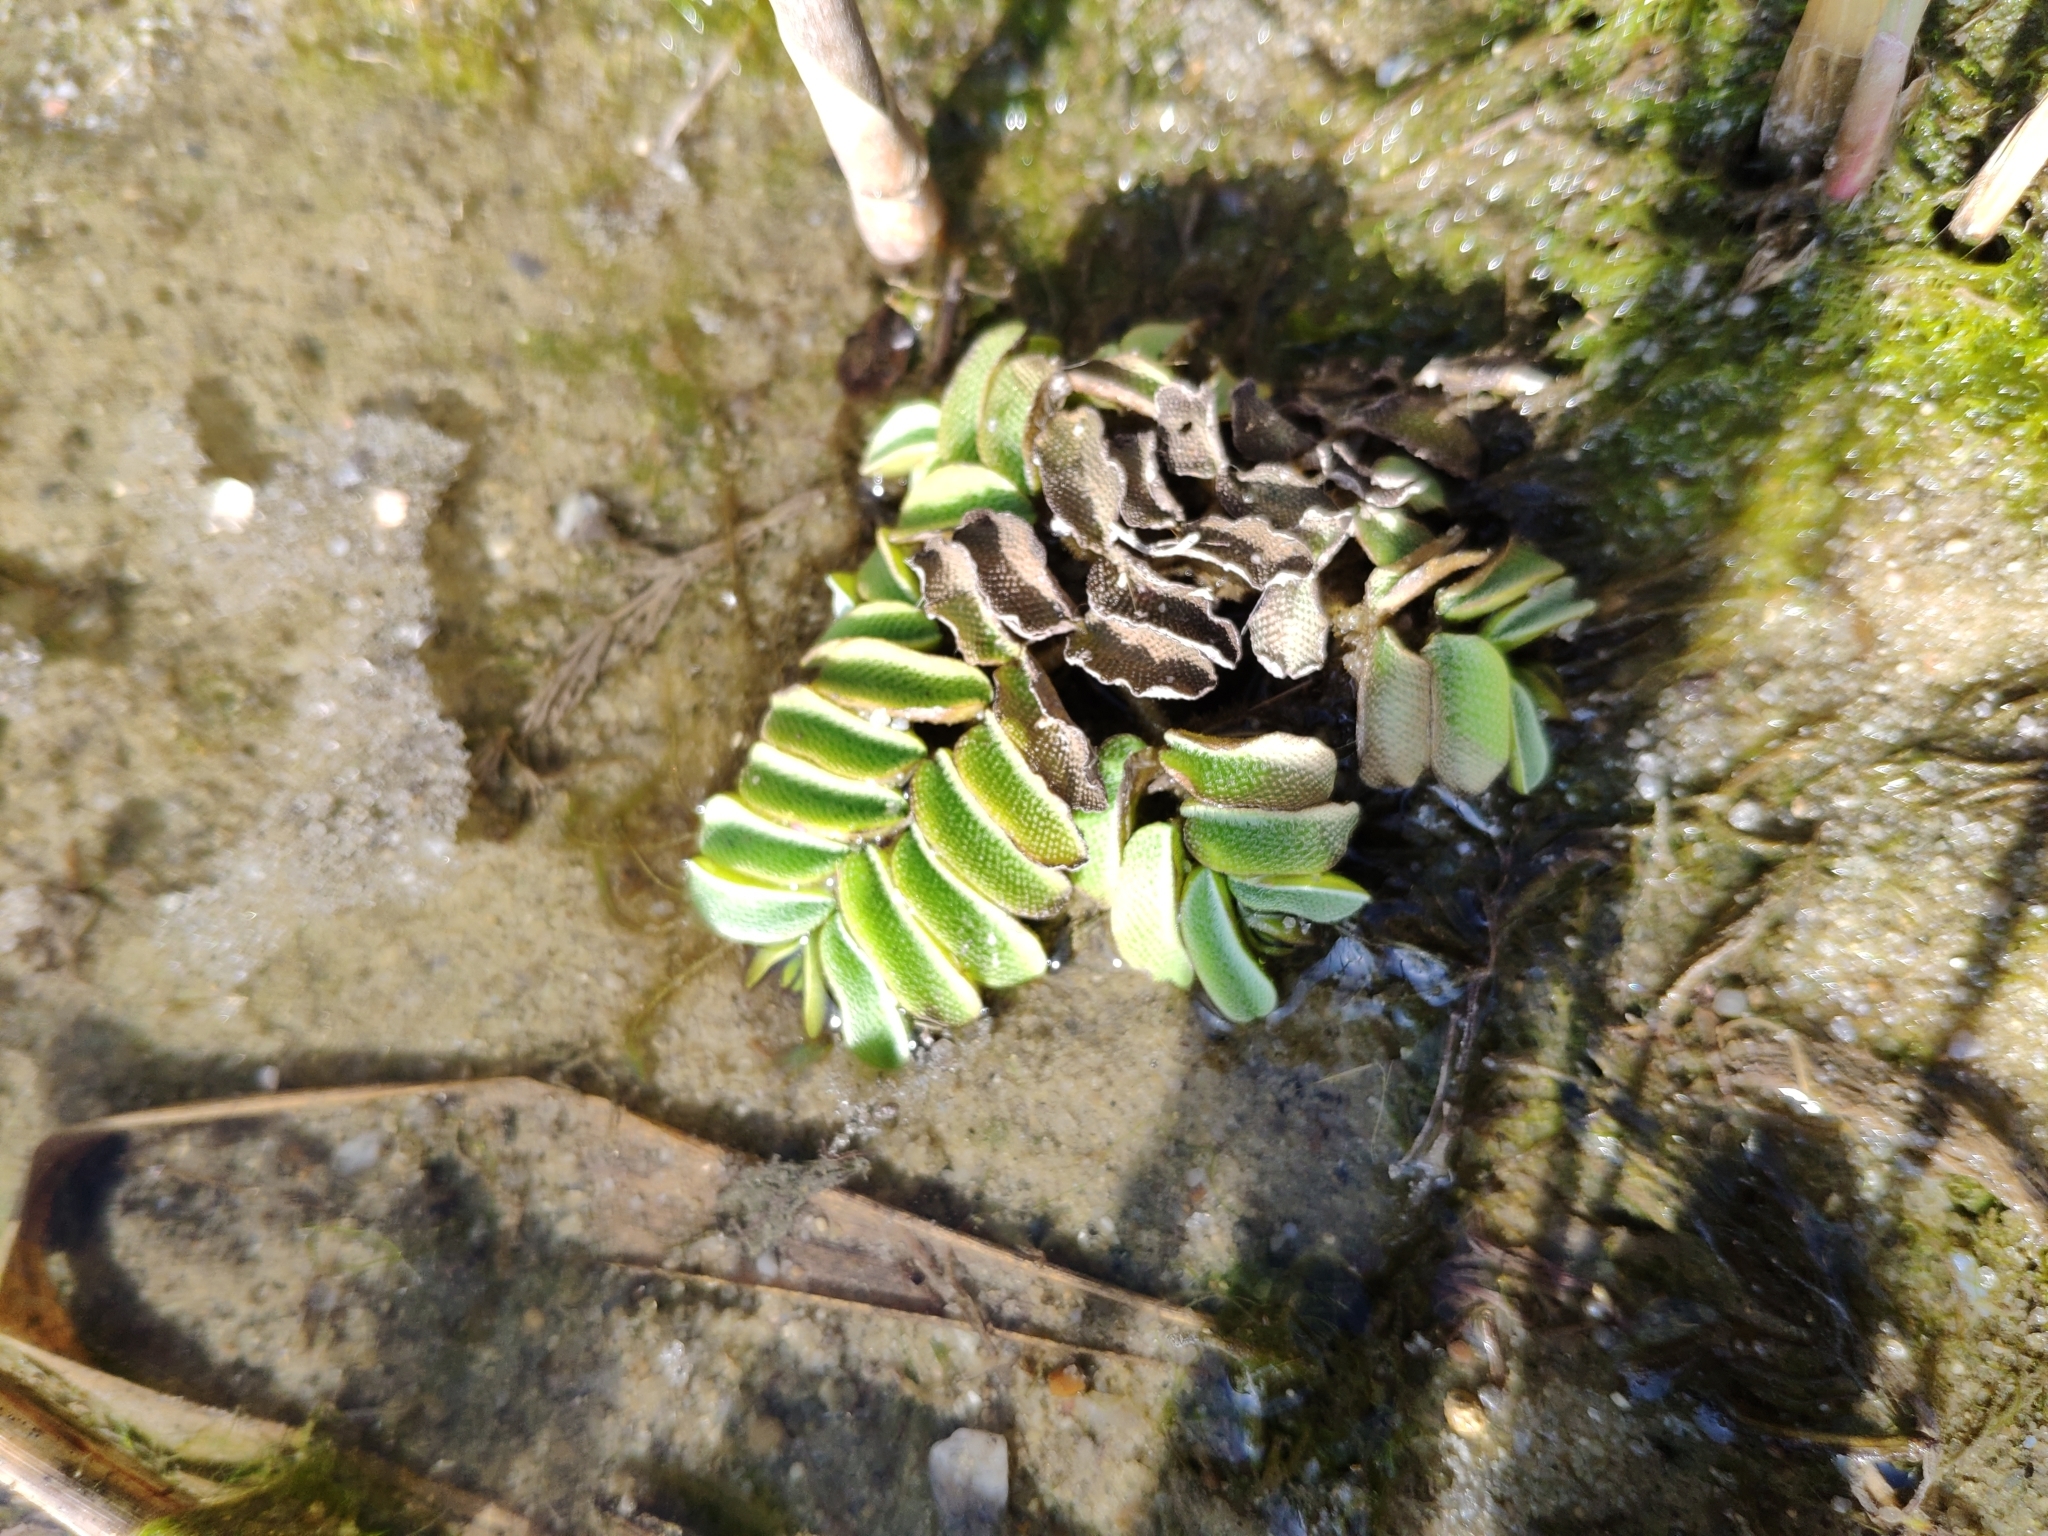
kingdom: Plantae
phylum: Tracheophyta
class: Polypodiopsida
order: Salviniales
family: Salviniaceae
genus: Salvinia
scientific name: Salvinia natans
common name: Floating fern
